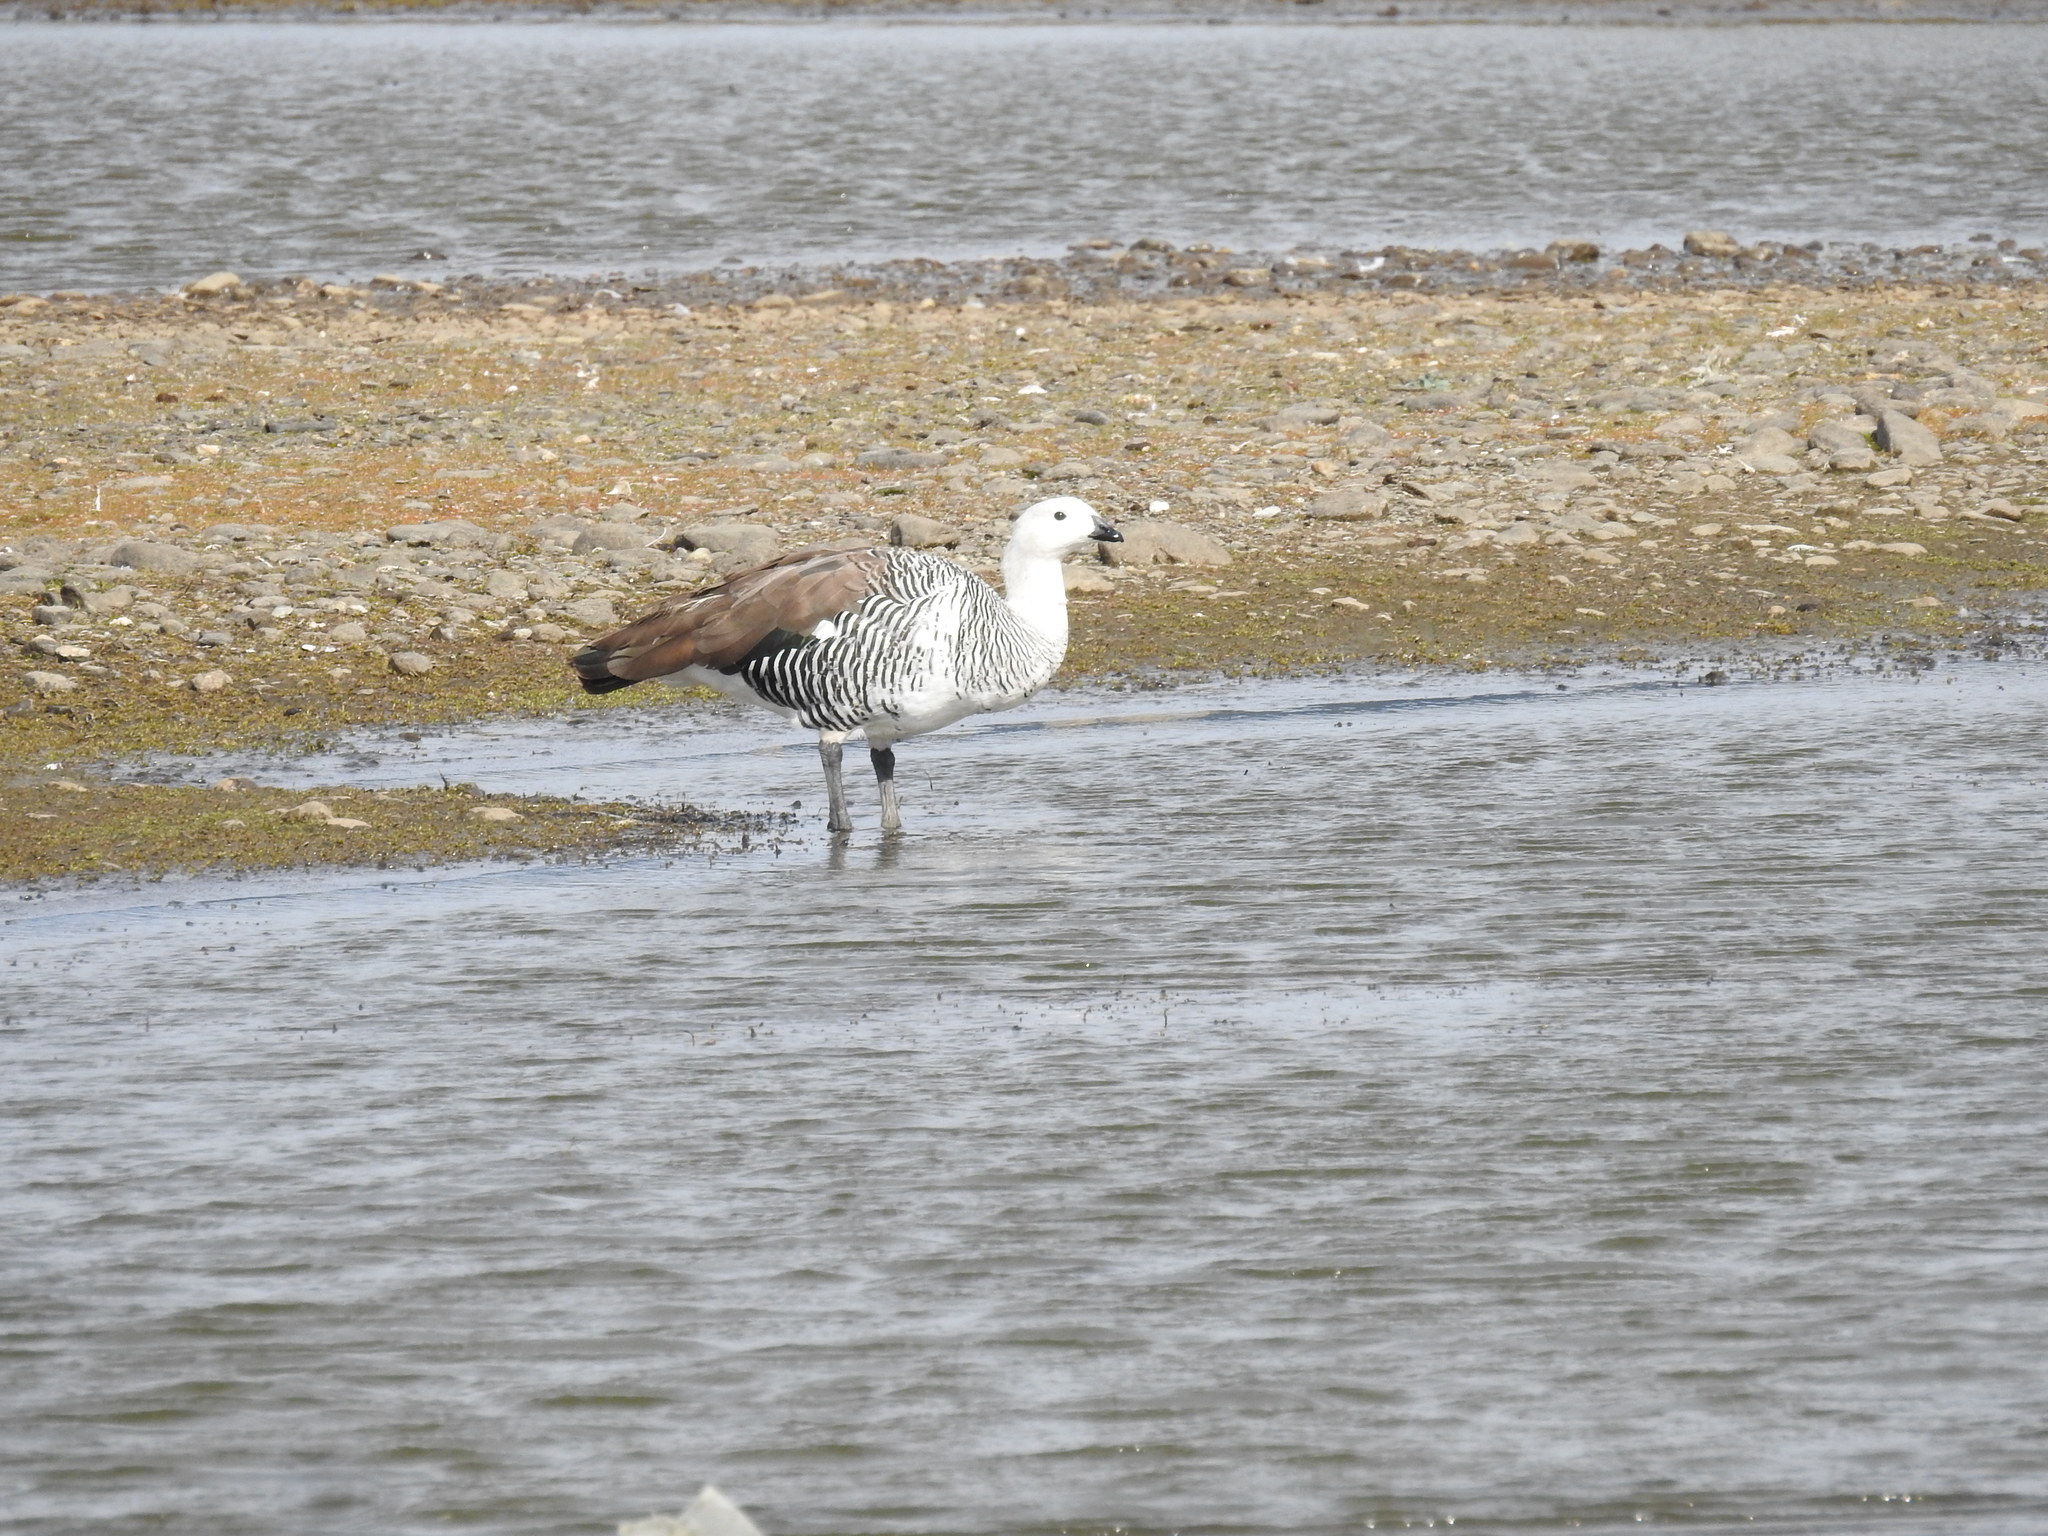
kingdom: Animalia
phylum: Chordata
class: Aves
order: Anseriformes
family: Anatidae
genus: Chloephaga
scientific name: Chloephaga picta
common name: Upland goose
